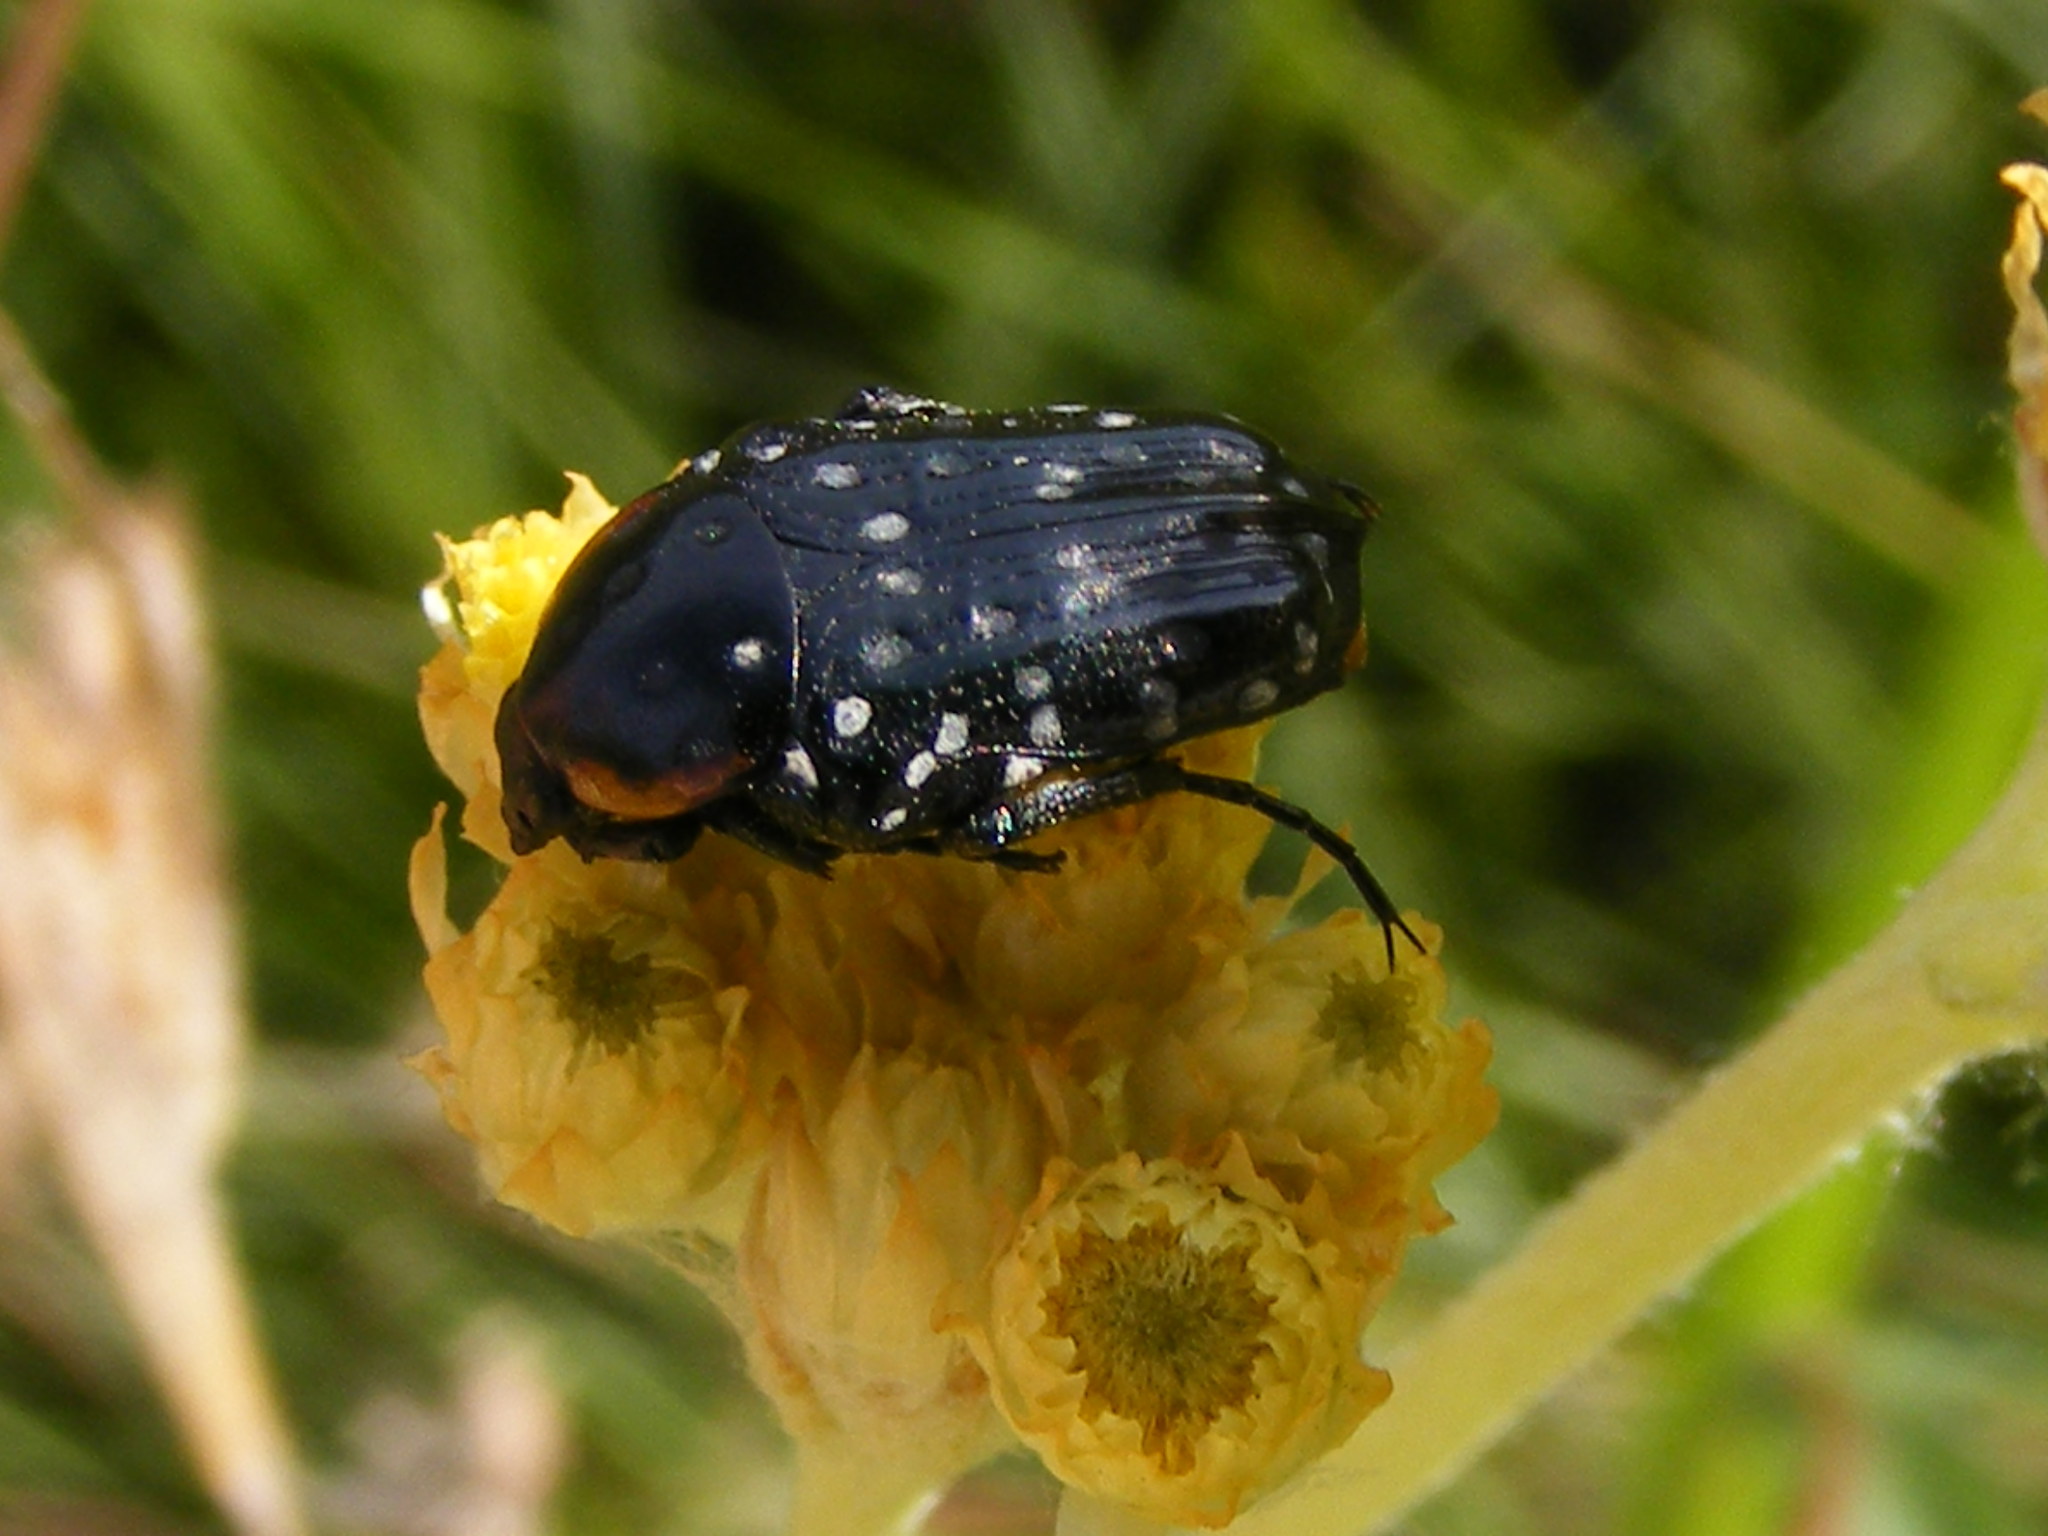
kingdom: Animalia
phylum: Arthropoda
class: Insecta
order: Coleoptera
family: Scarabaeidae
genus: Oxythyrea
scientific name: Oxythyrea
